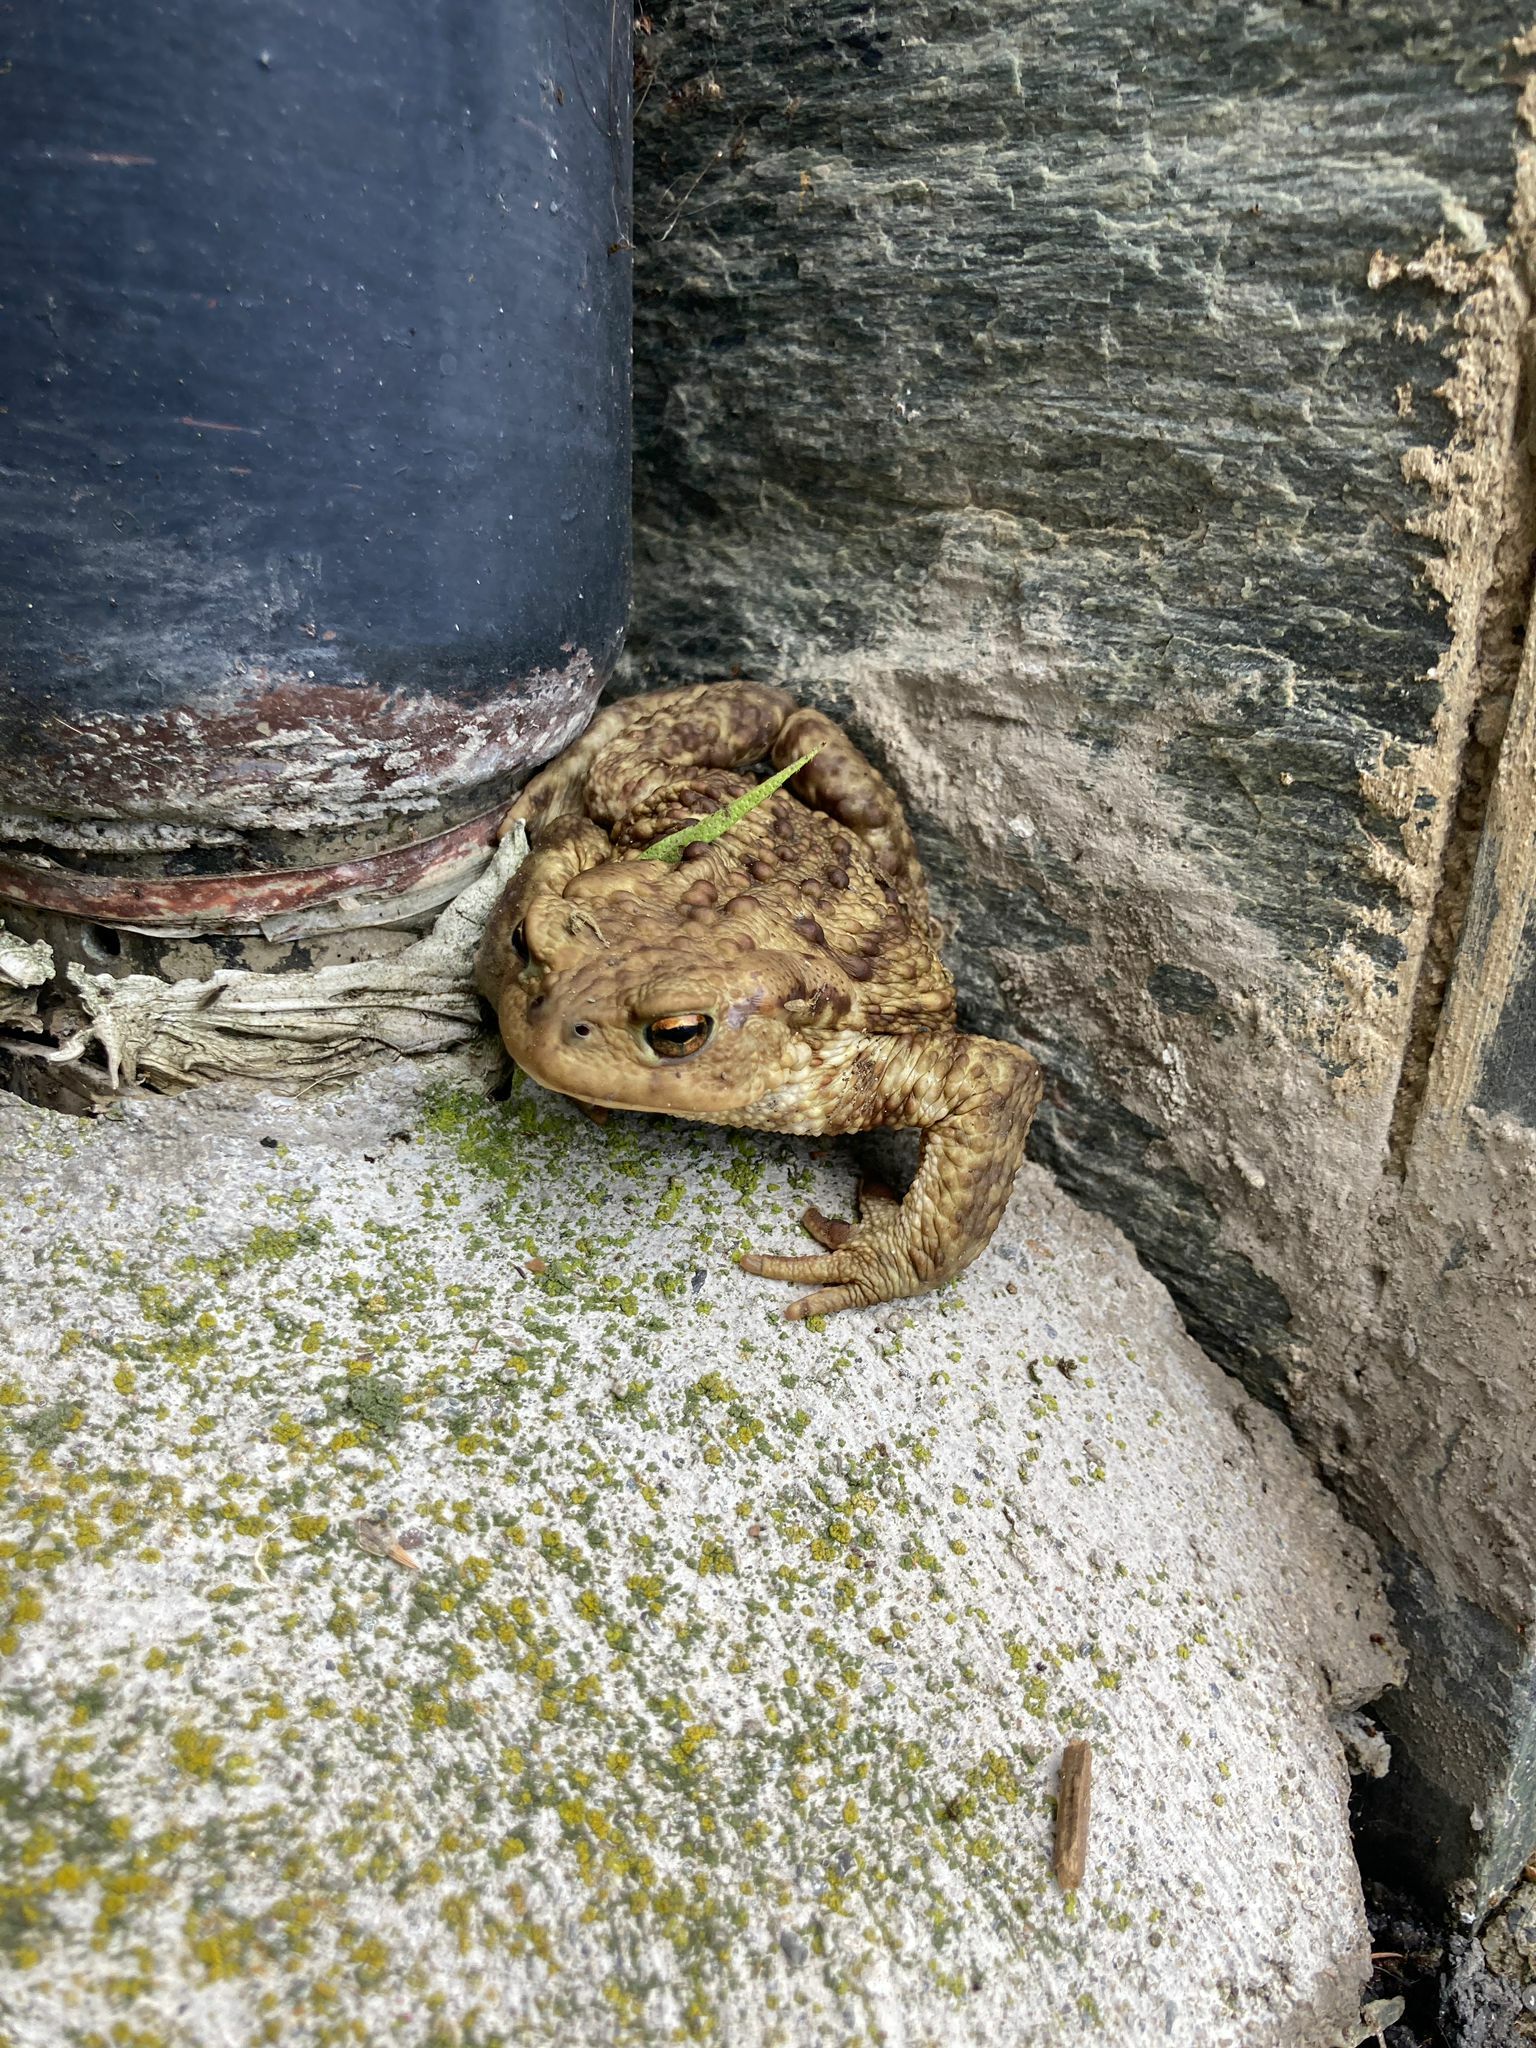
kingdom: Animalia
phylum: Chordata
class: Amphibia
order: Anura
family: Bufonidae
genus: Bufo
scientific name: Bufo bufo
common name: Common toad
